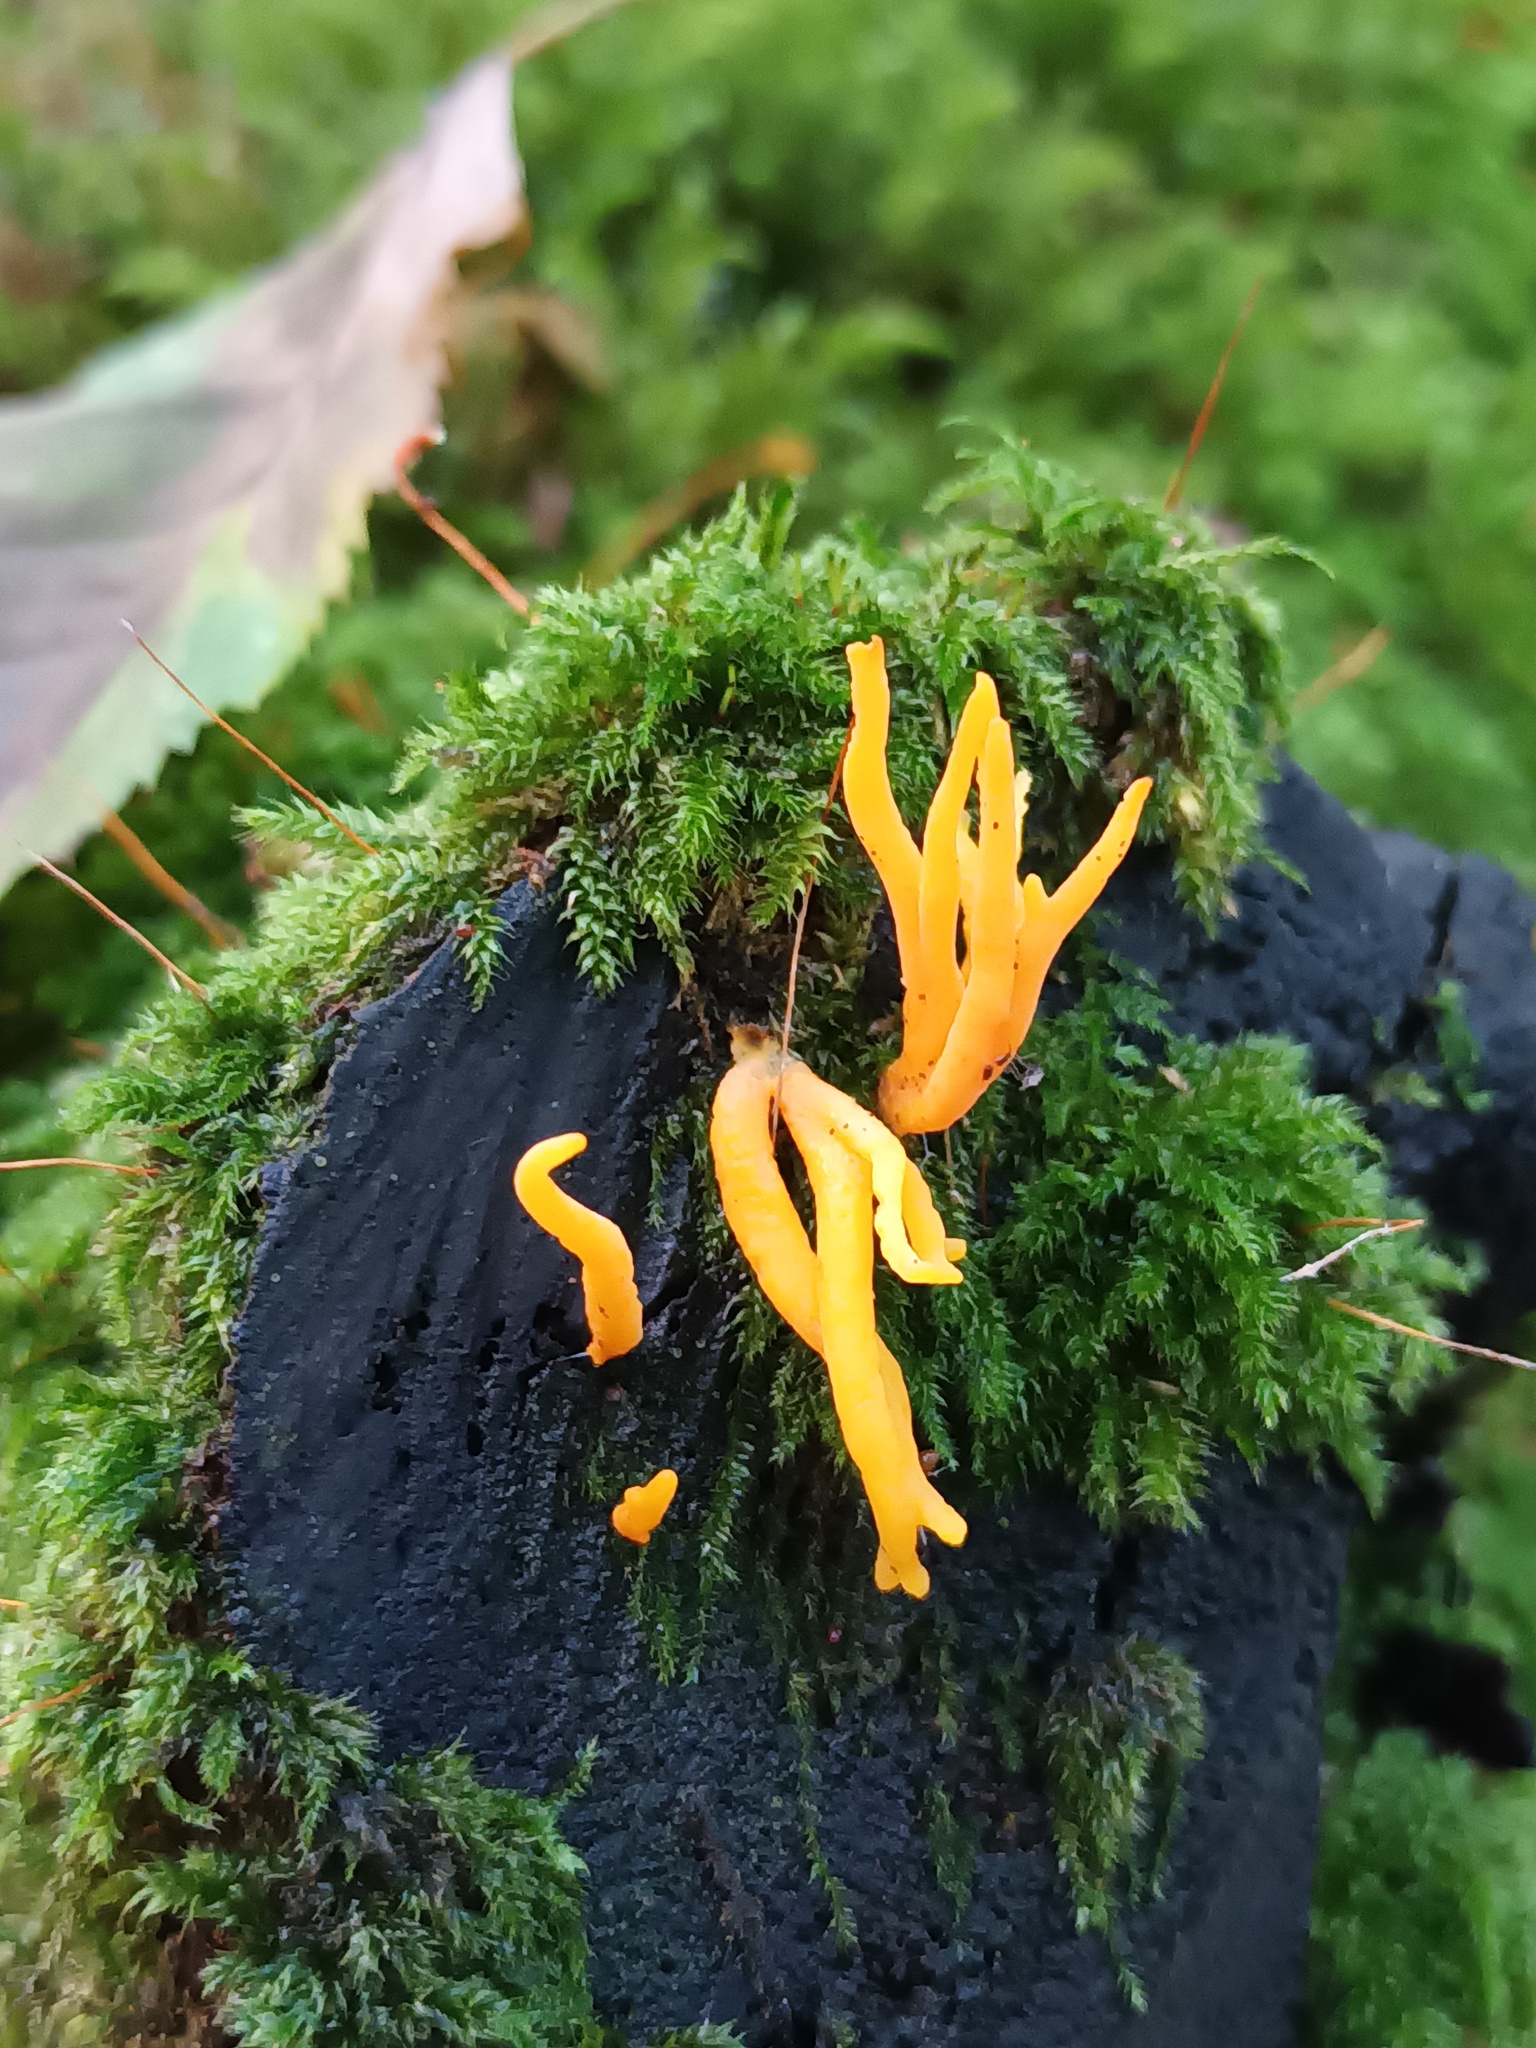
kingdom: Fungi
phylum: Basidiomycota
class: Dacrymycetes
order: Dacrymycetales
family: Dacrymycetaceae
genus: Calocera
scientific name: Calocera viscosa
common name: Yellow stagshorn
